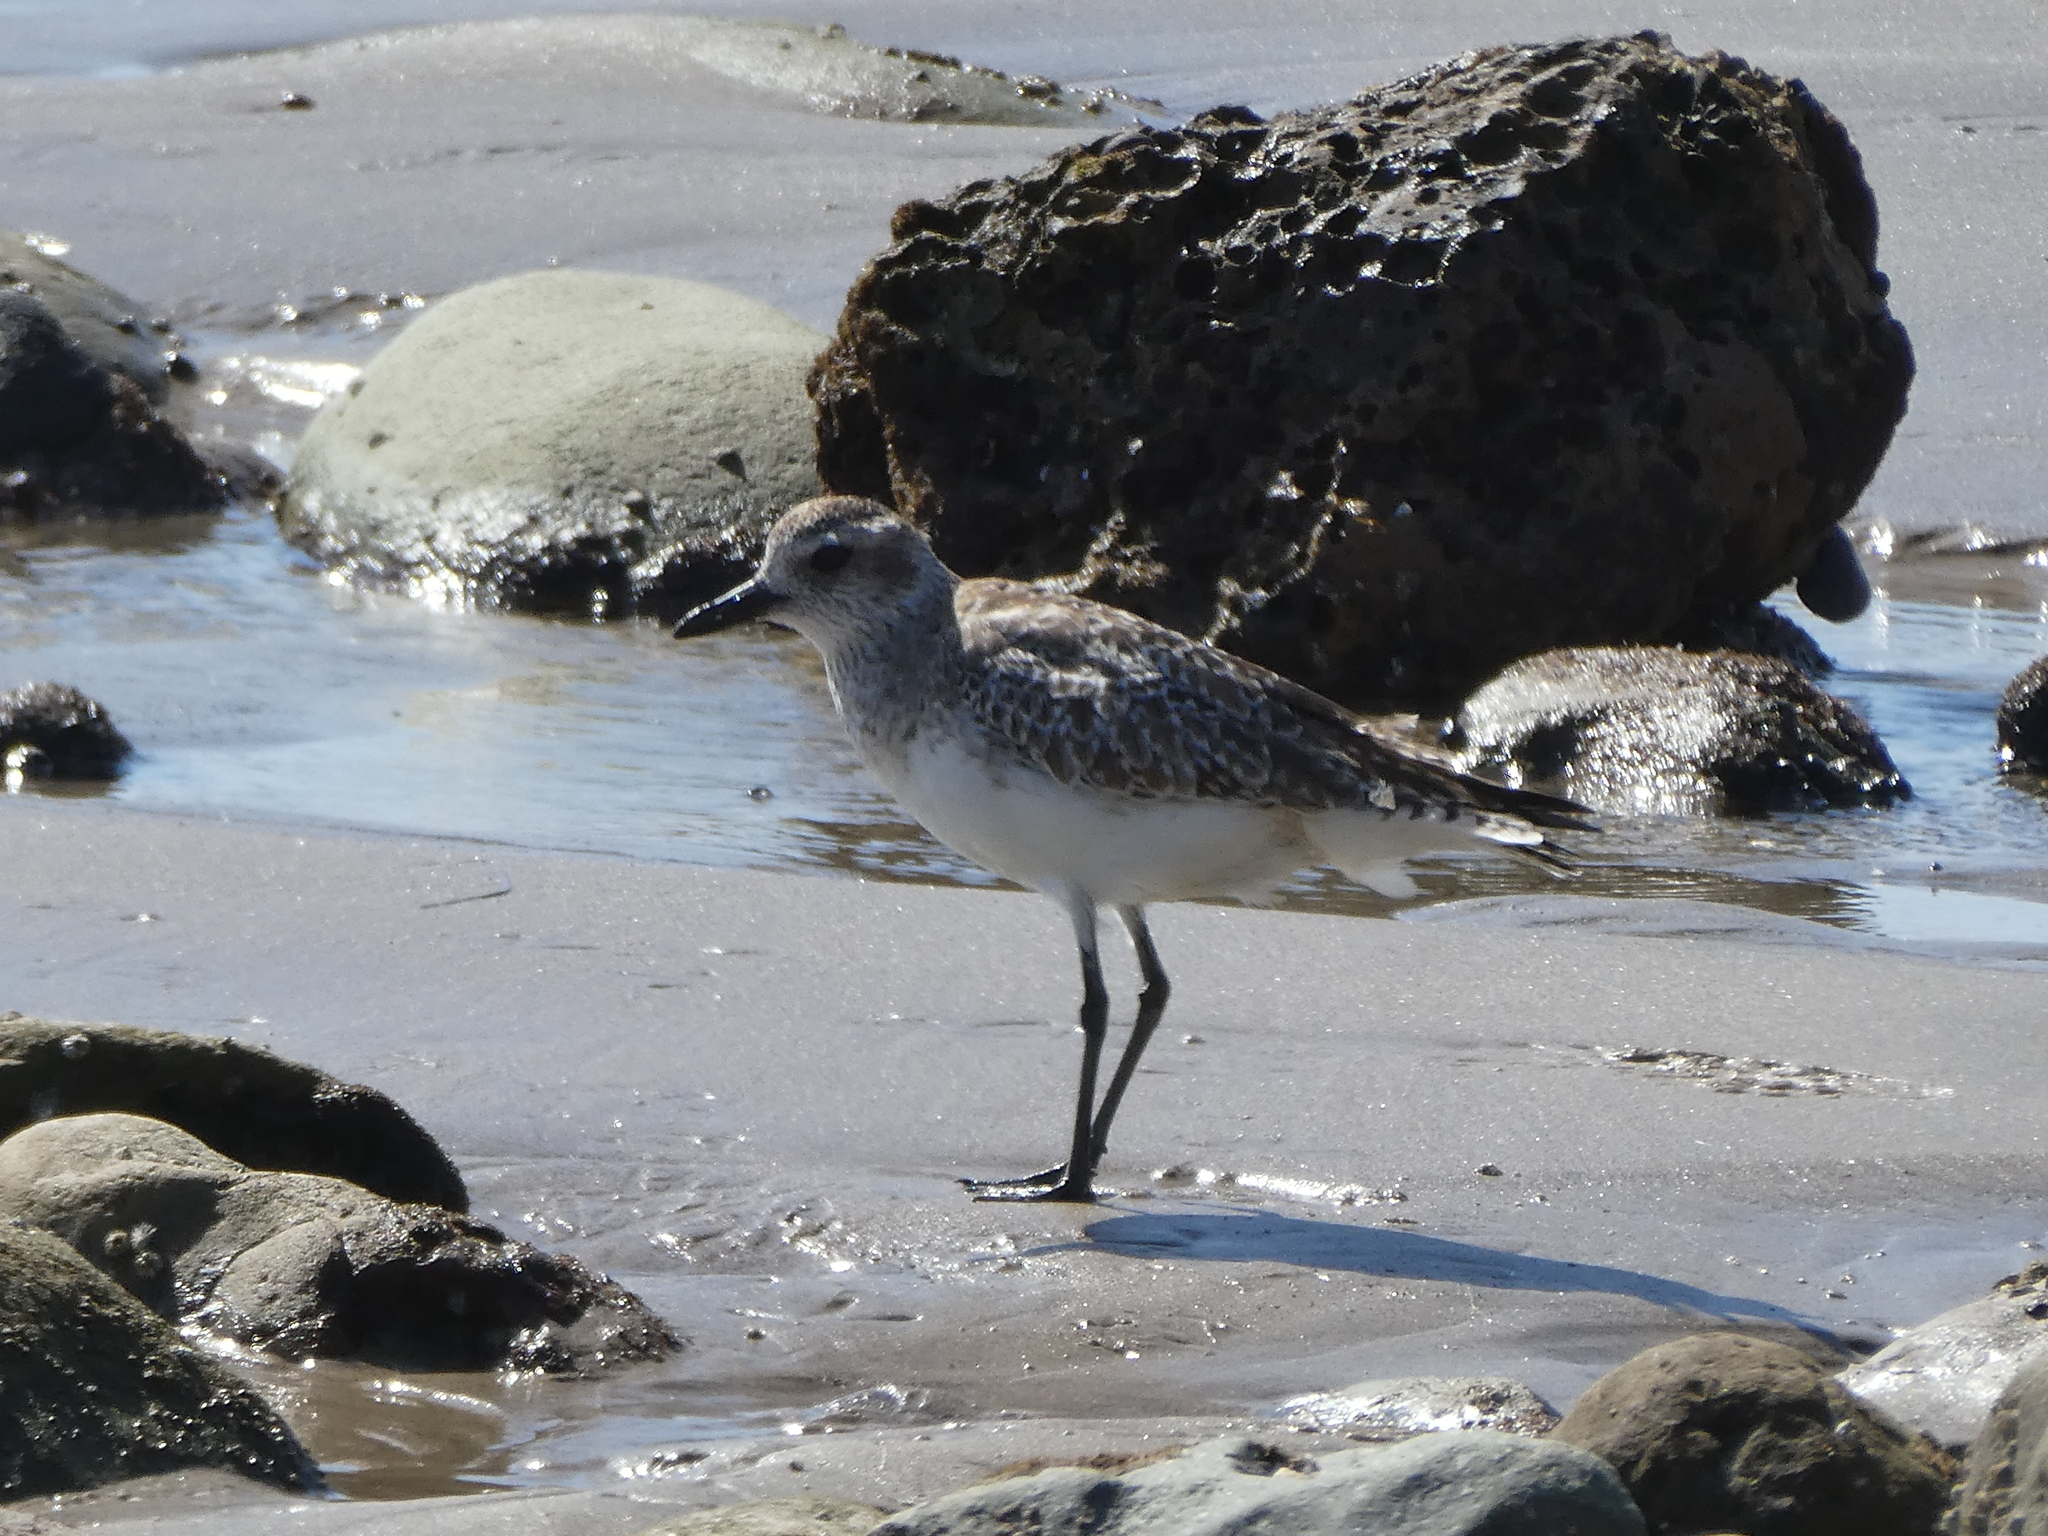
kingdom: Animalia
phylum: Chordata
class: Aves
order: Charadriiformes
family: Charadriidae
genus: Pluvialis
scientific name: Pluvialis squatarola
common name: Grey plover
